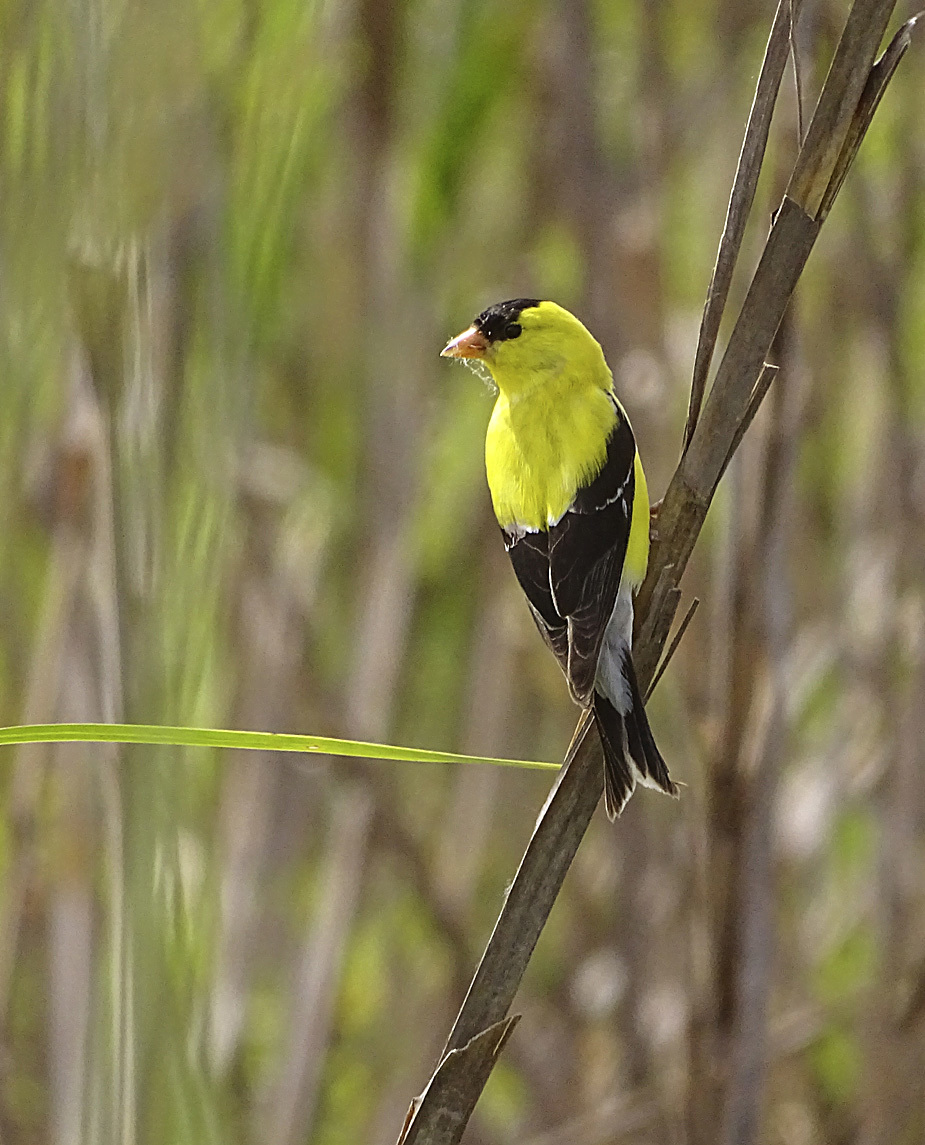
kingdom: Animalia
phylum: Chordata
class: Aves
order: Passeriformes
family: Fringillidae
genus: Spinus
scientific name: Spinus tristis
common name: American goldfinch
